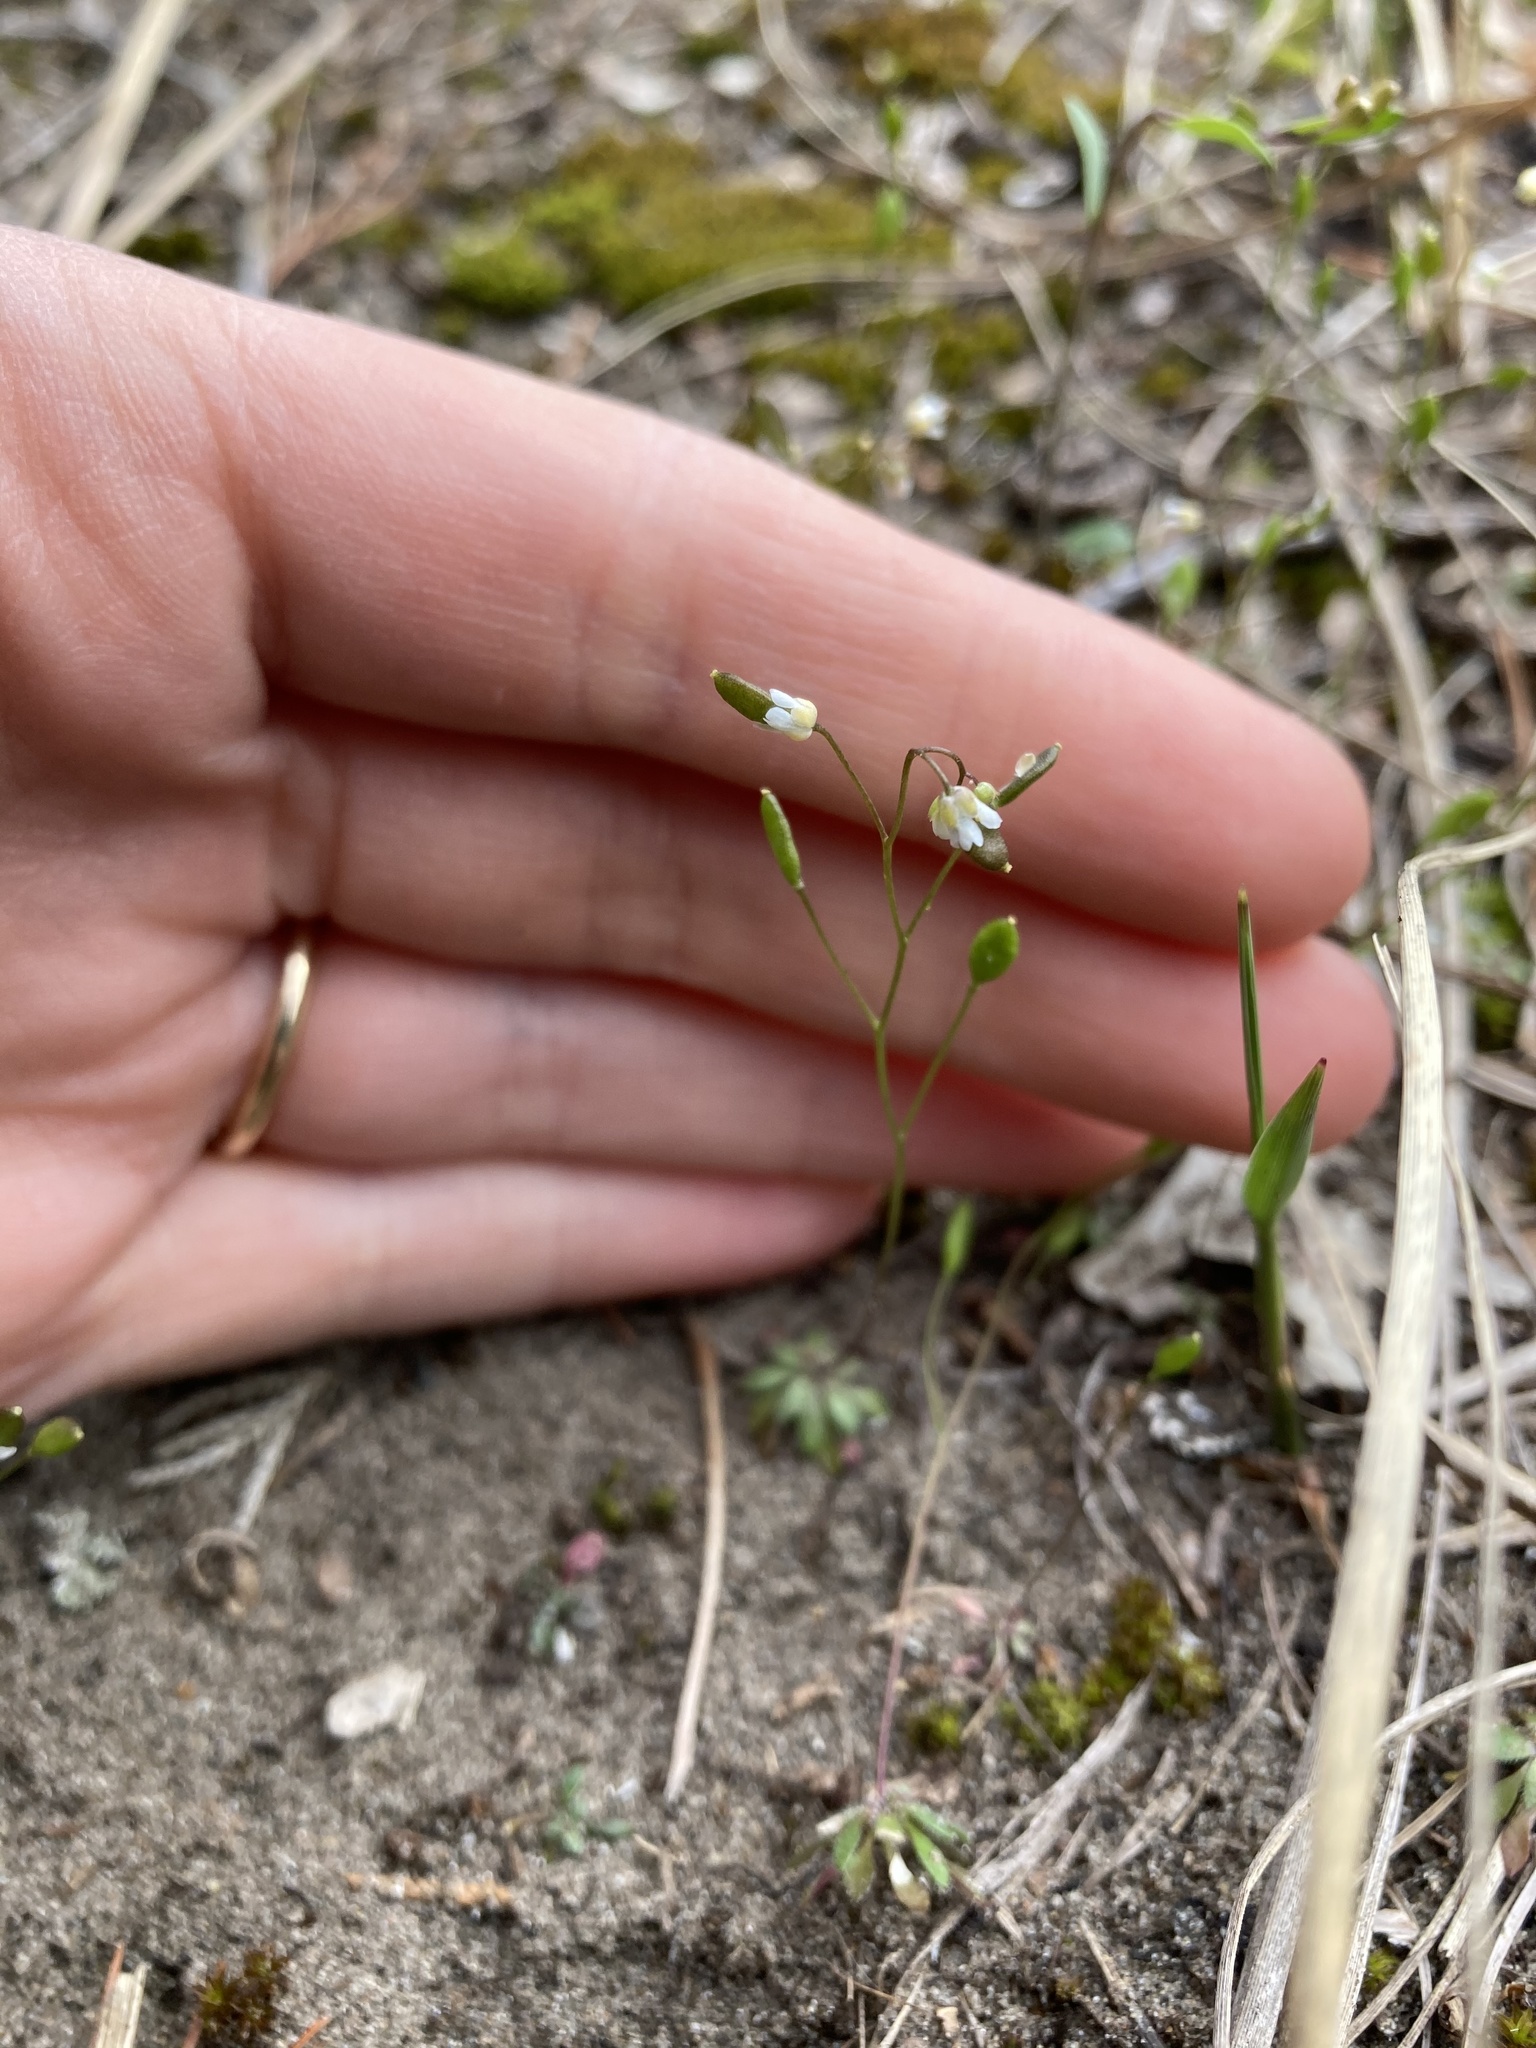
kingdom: Plantae
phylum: Tracheophyta
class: Magnoliopsida
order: Brassicales
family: Brassicaceae
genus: Draba
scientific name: Draba verna
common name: Spring draba
